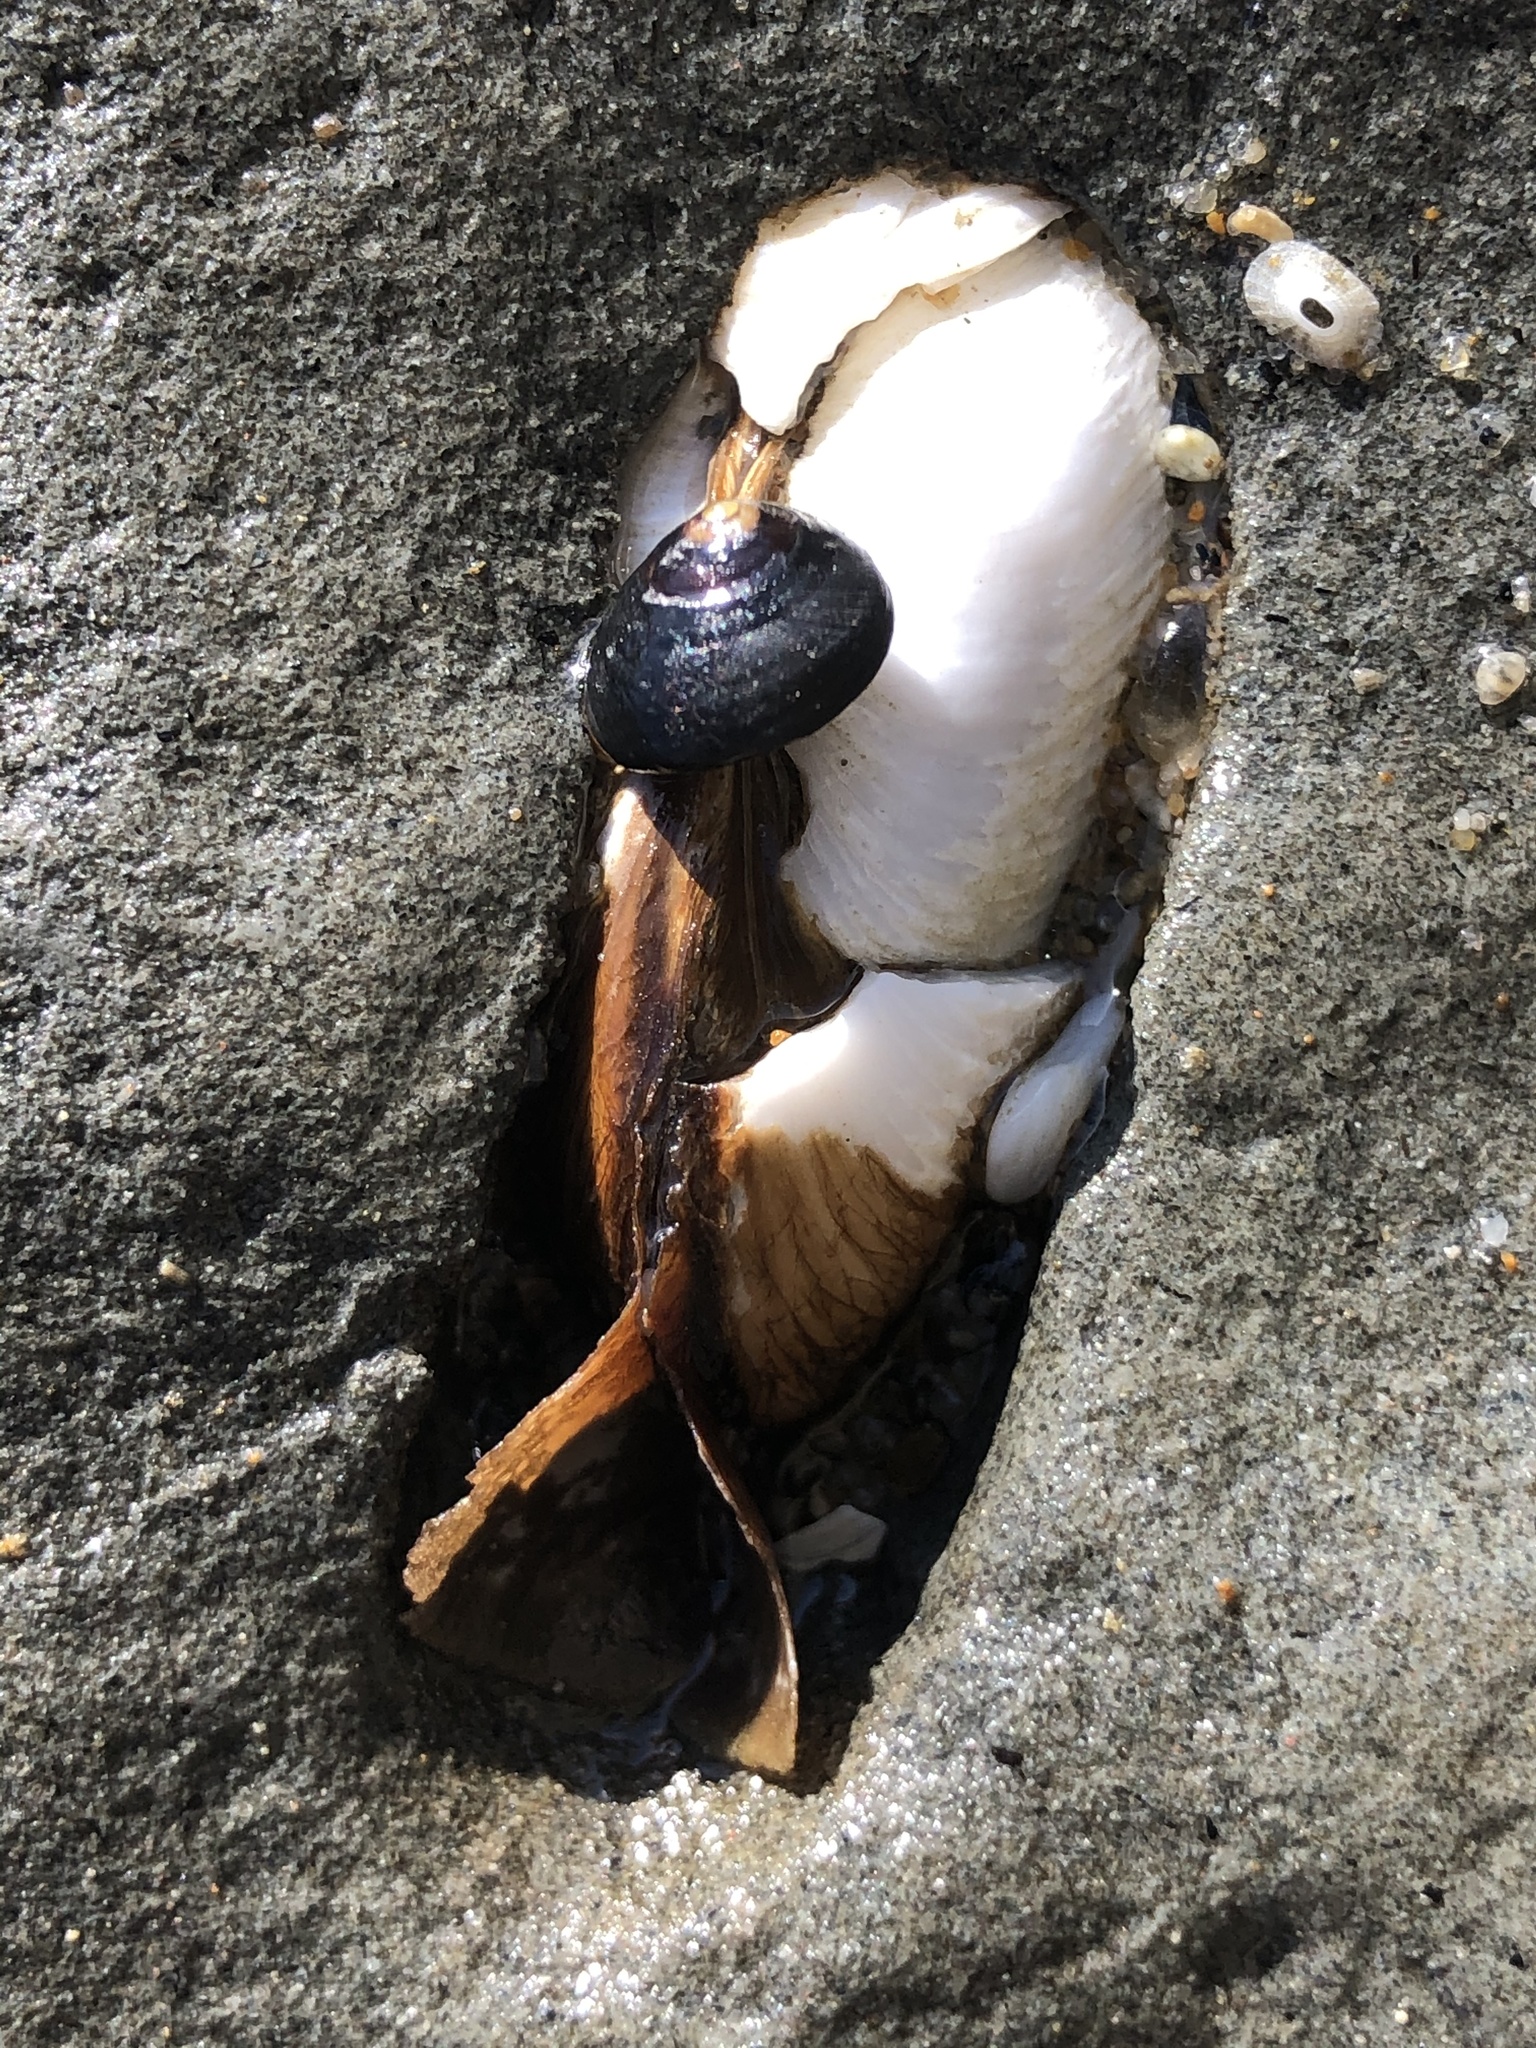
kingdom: Animalia
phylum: Mollusca
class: Bivalvia
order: Myida
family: Pholadidae
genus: Penitella
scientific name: Penitella penita
